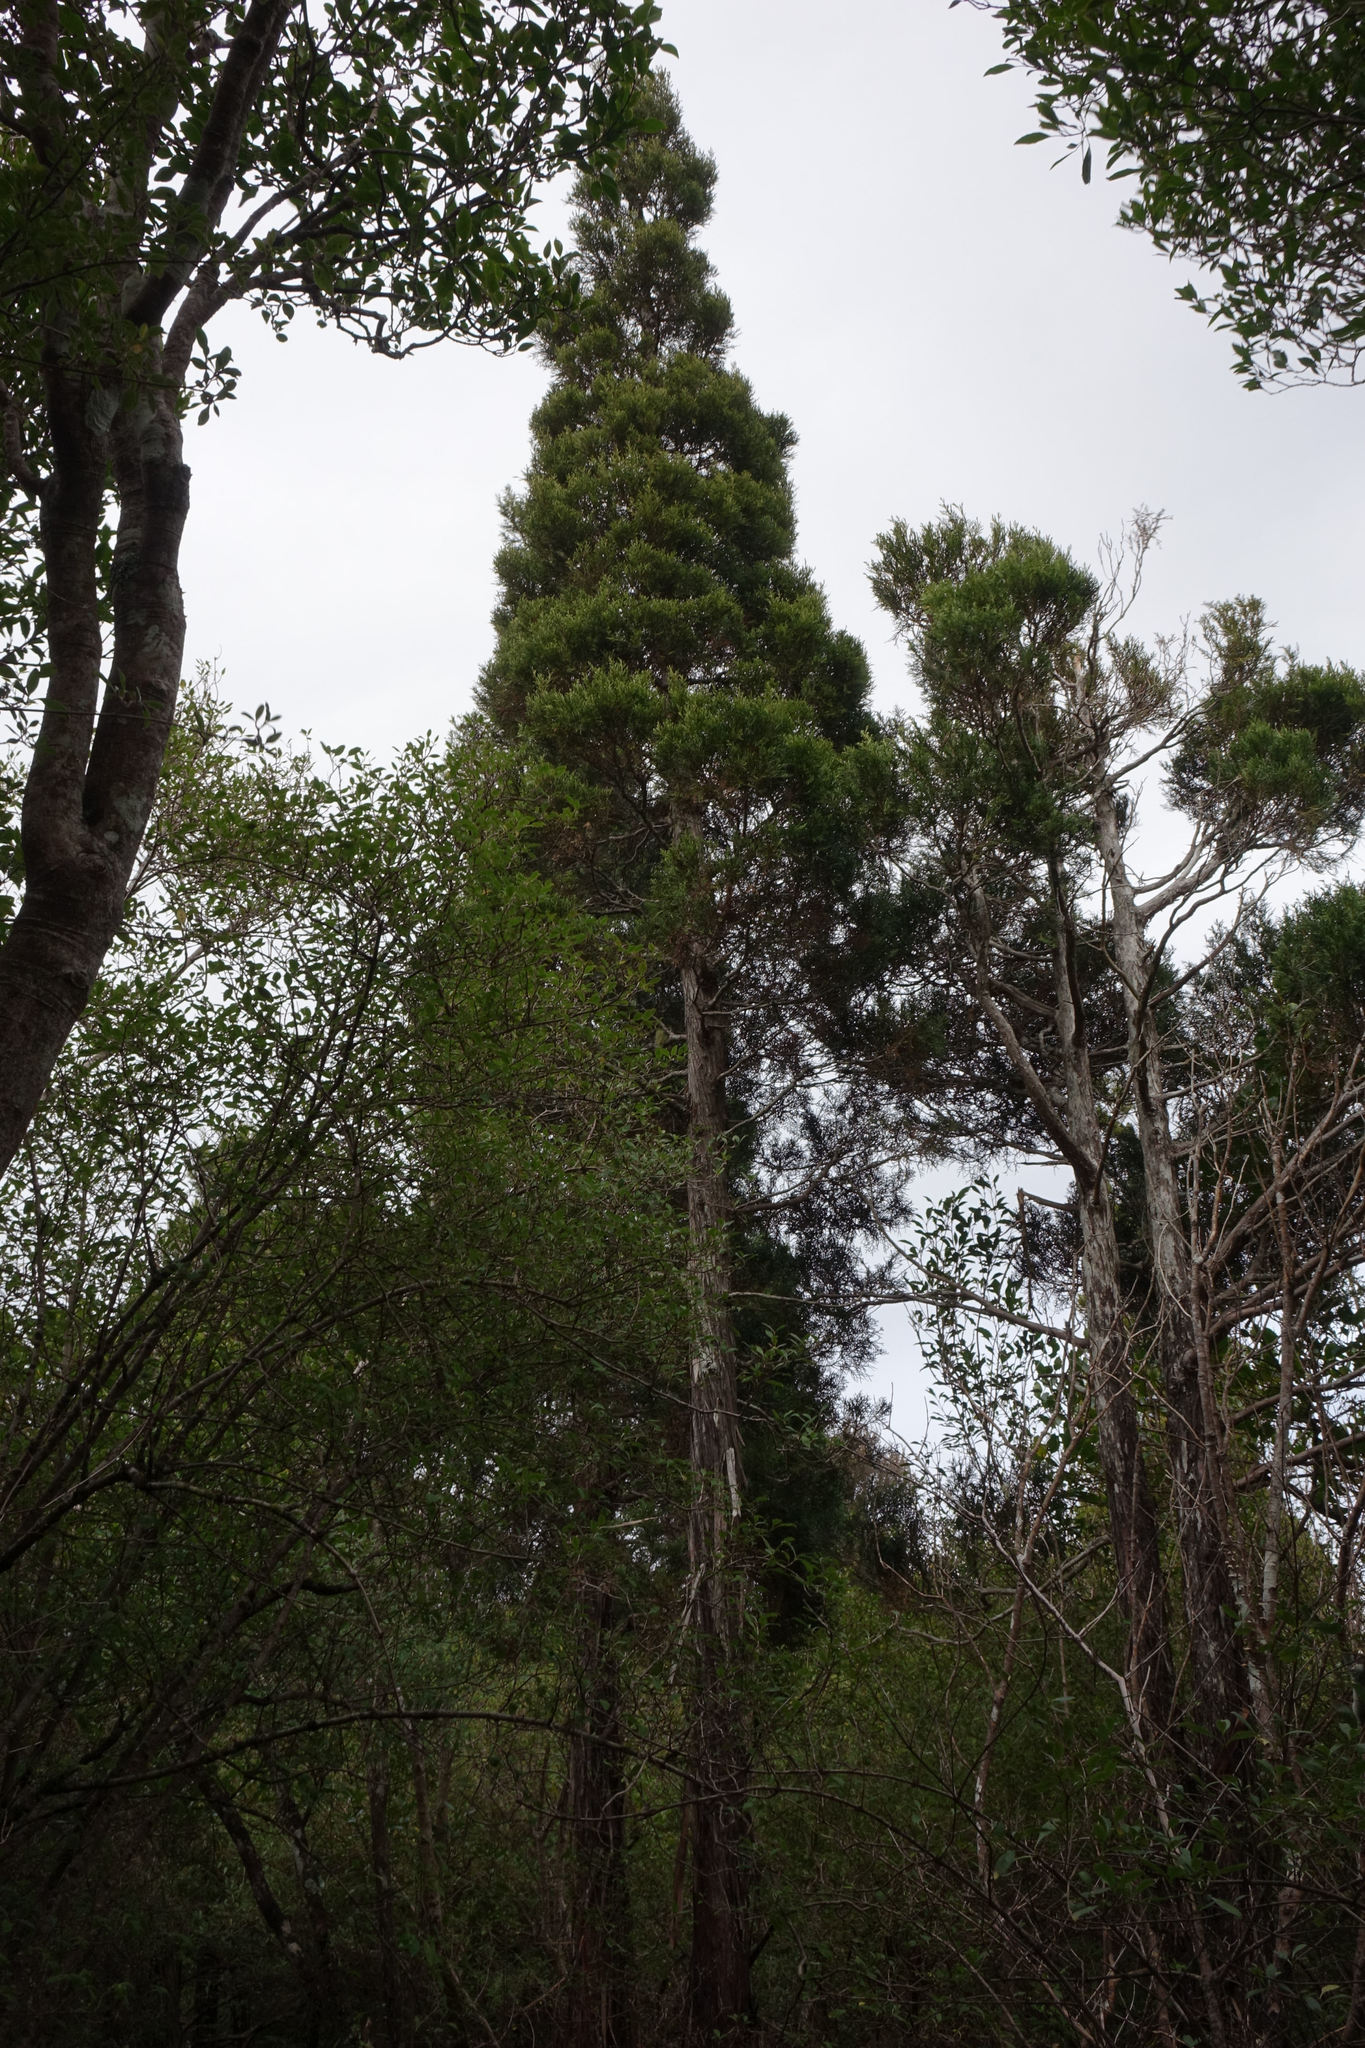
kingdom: Plantae
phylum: Tracheophyta
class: Pinopsida
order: Pinales
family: Cupressaceae
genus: Libocedrus
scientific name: Libocedrus bidwillii
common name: Cedar
